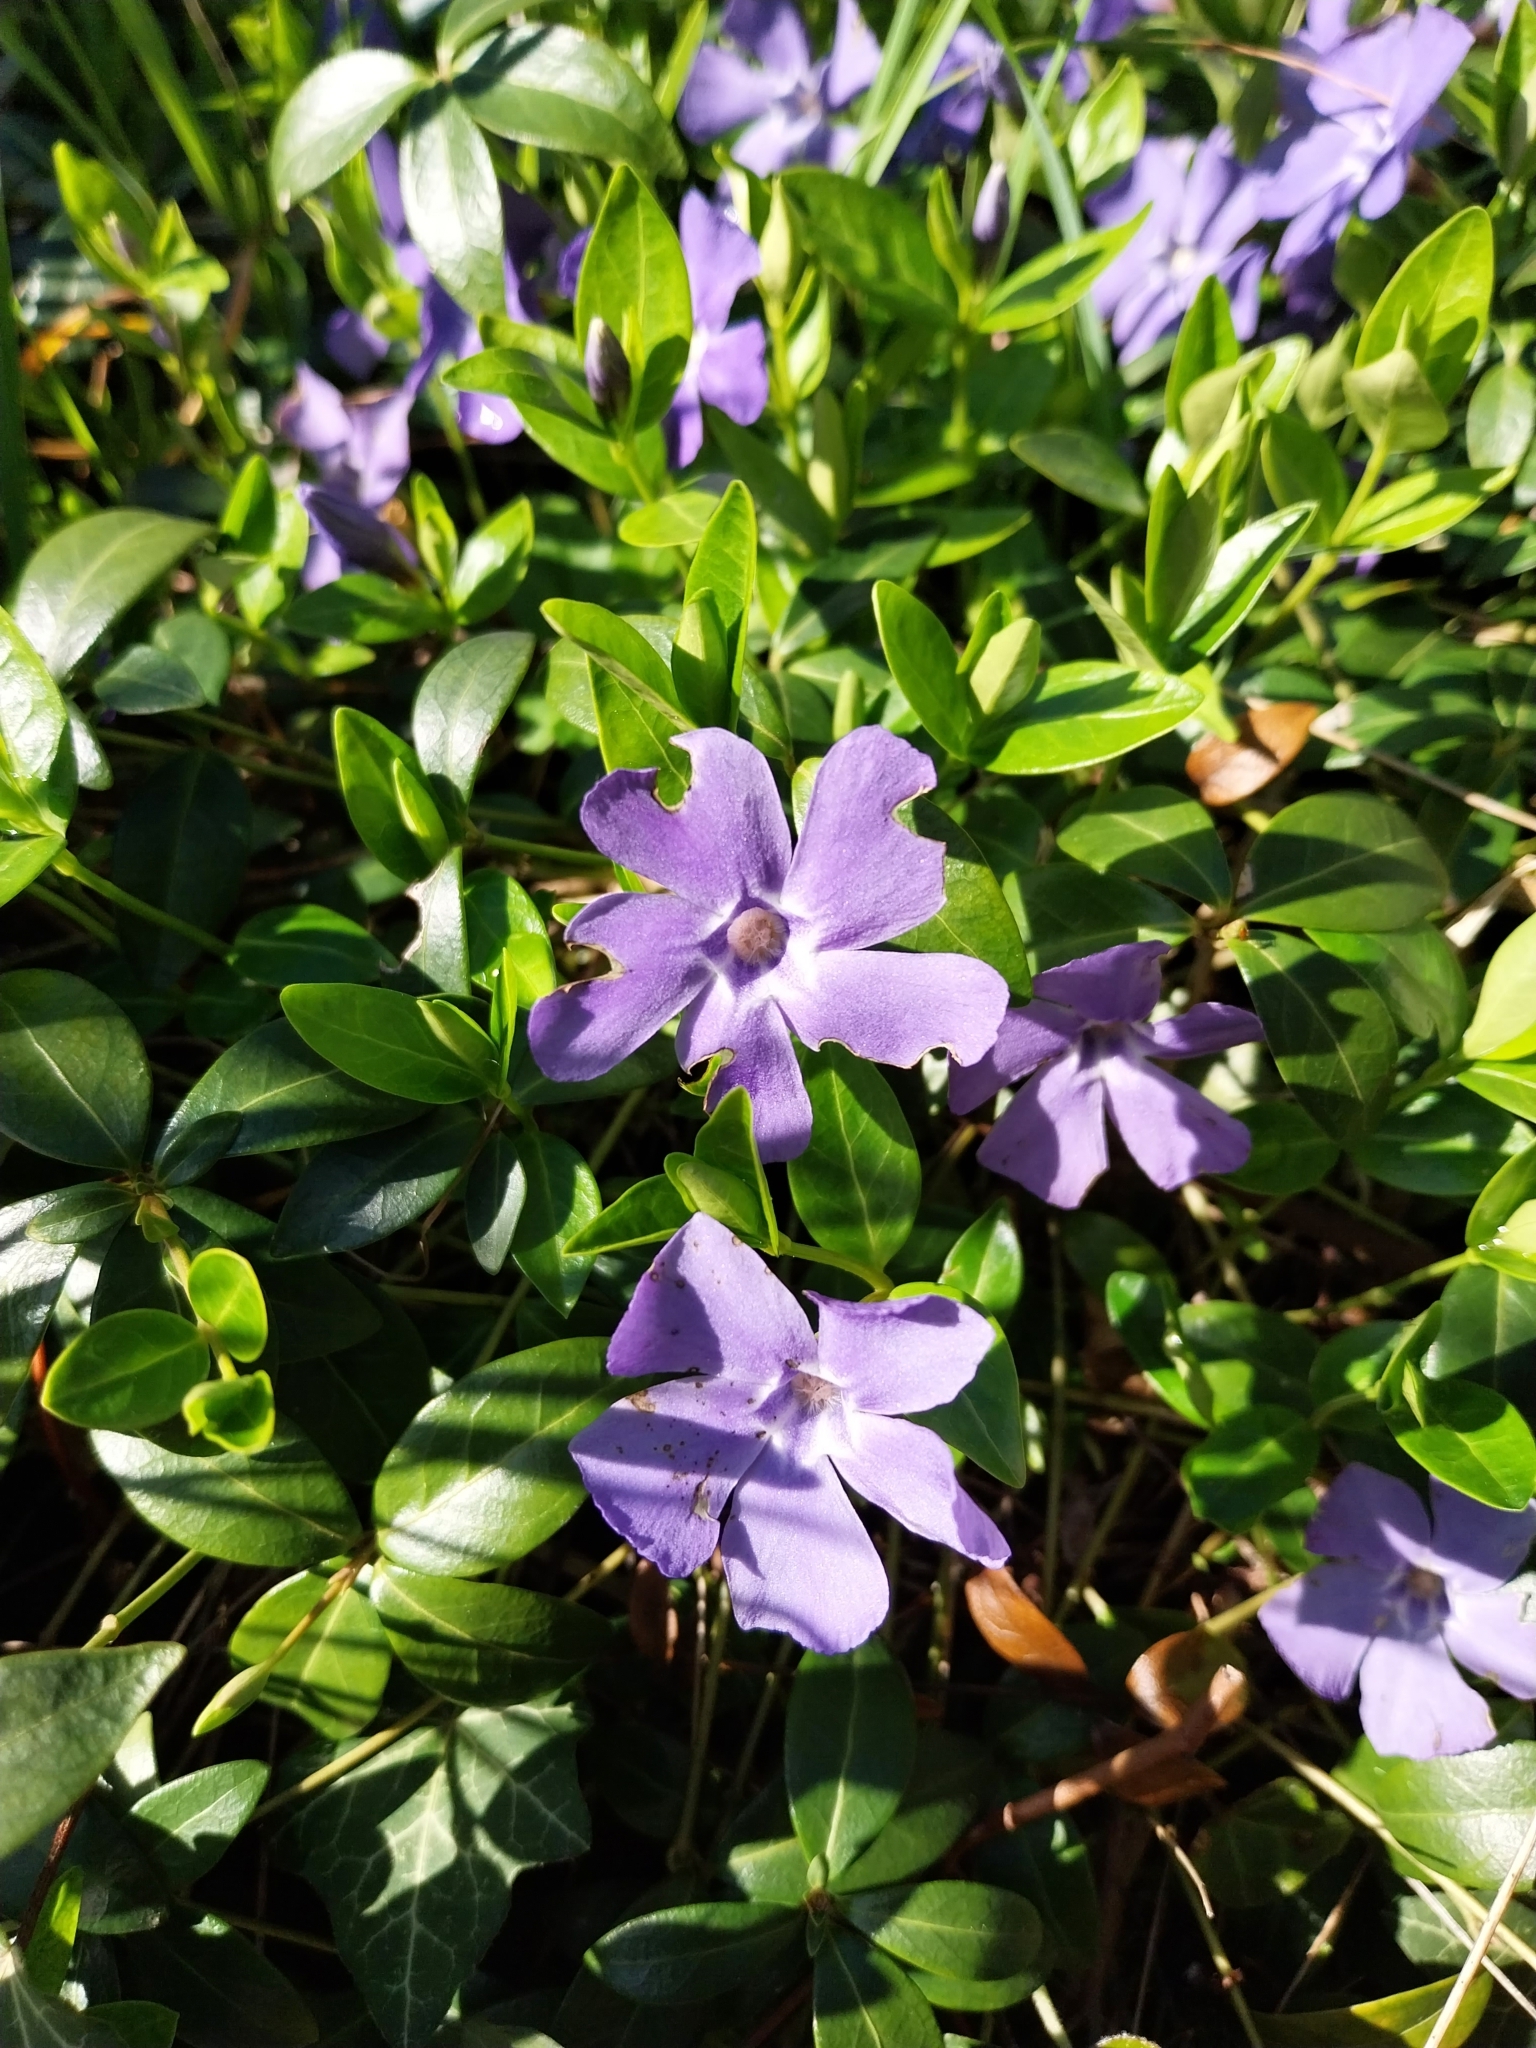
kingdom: Plantae
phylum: Tracheophyta
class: Magnoliopsida
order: Gentianales
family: Apocynaceae
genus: Vinca
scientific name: Vinca minor
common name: Lesser periwinkle
